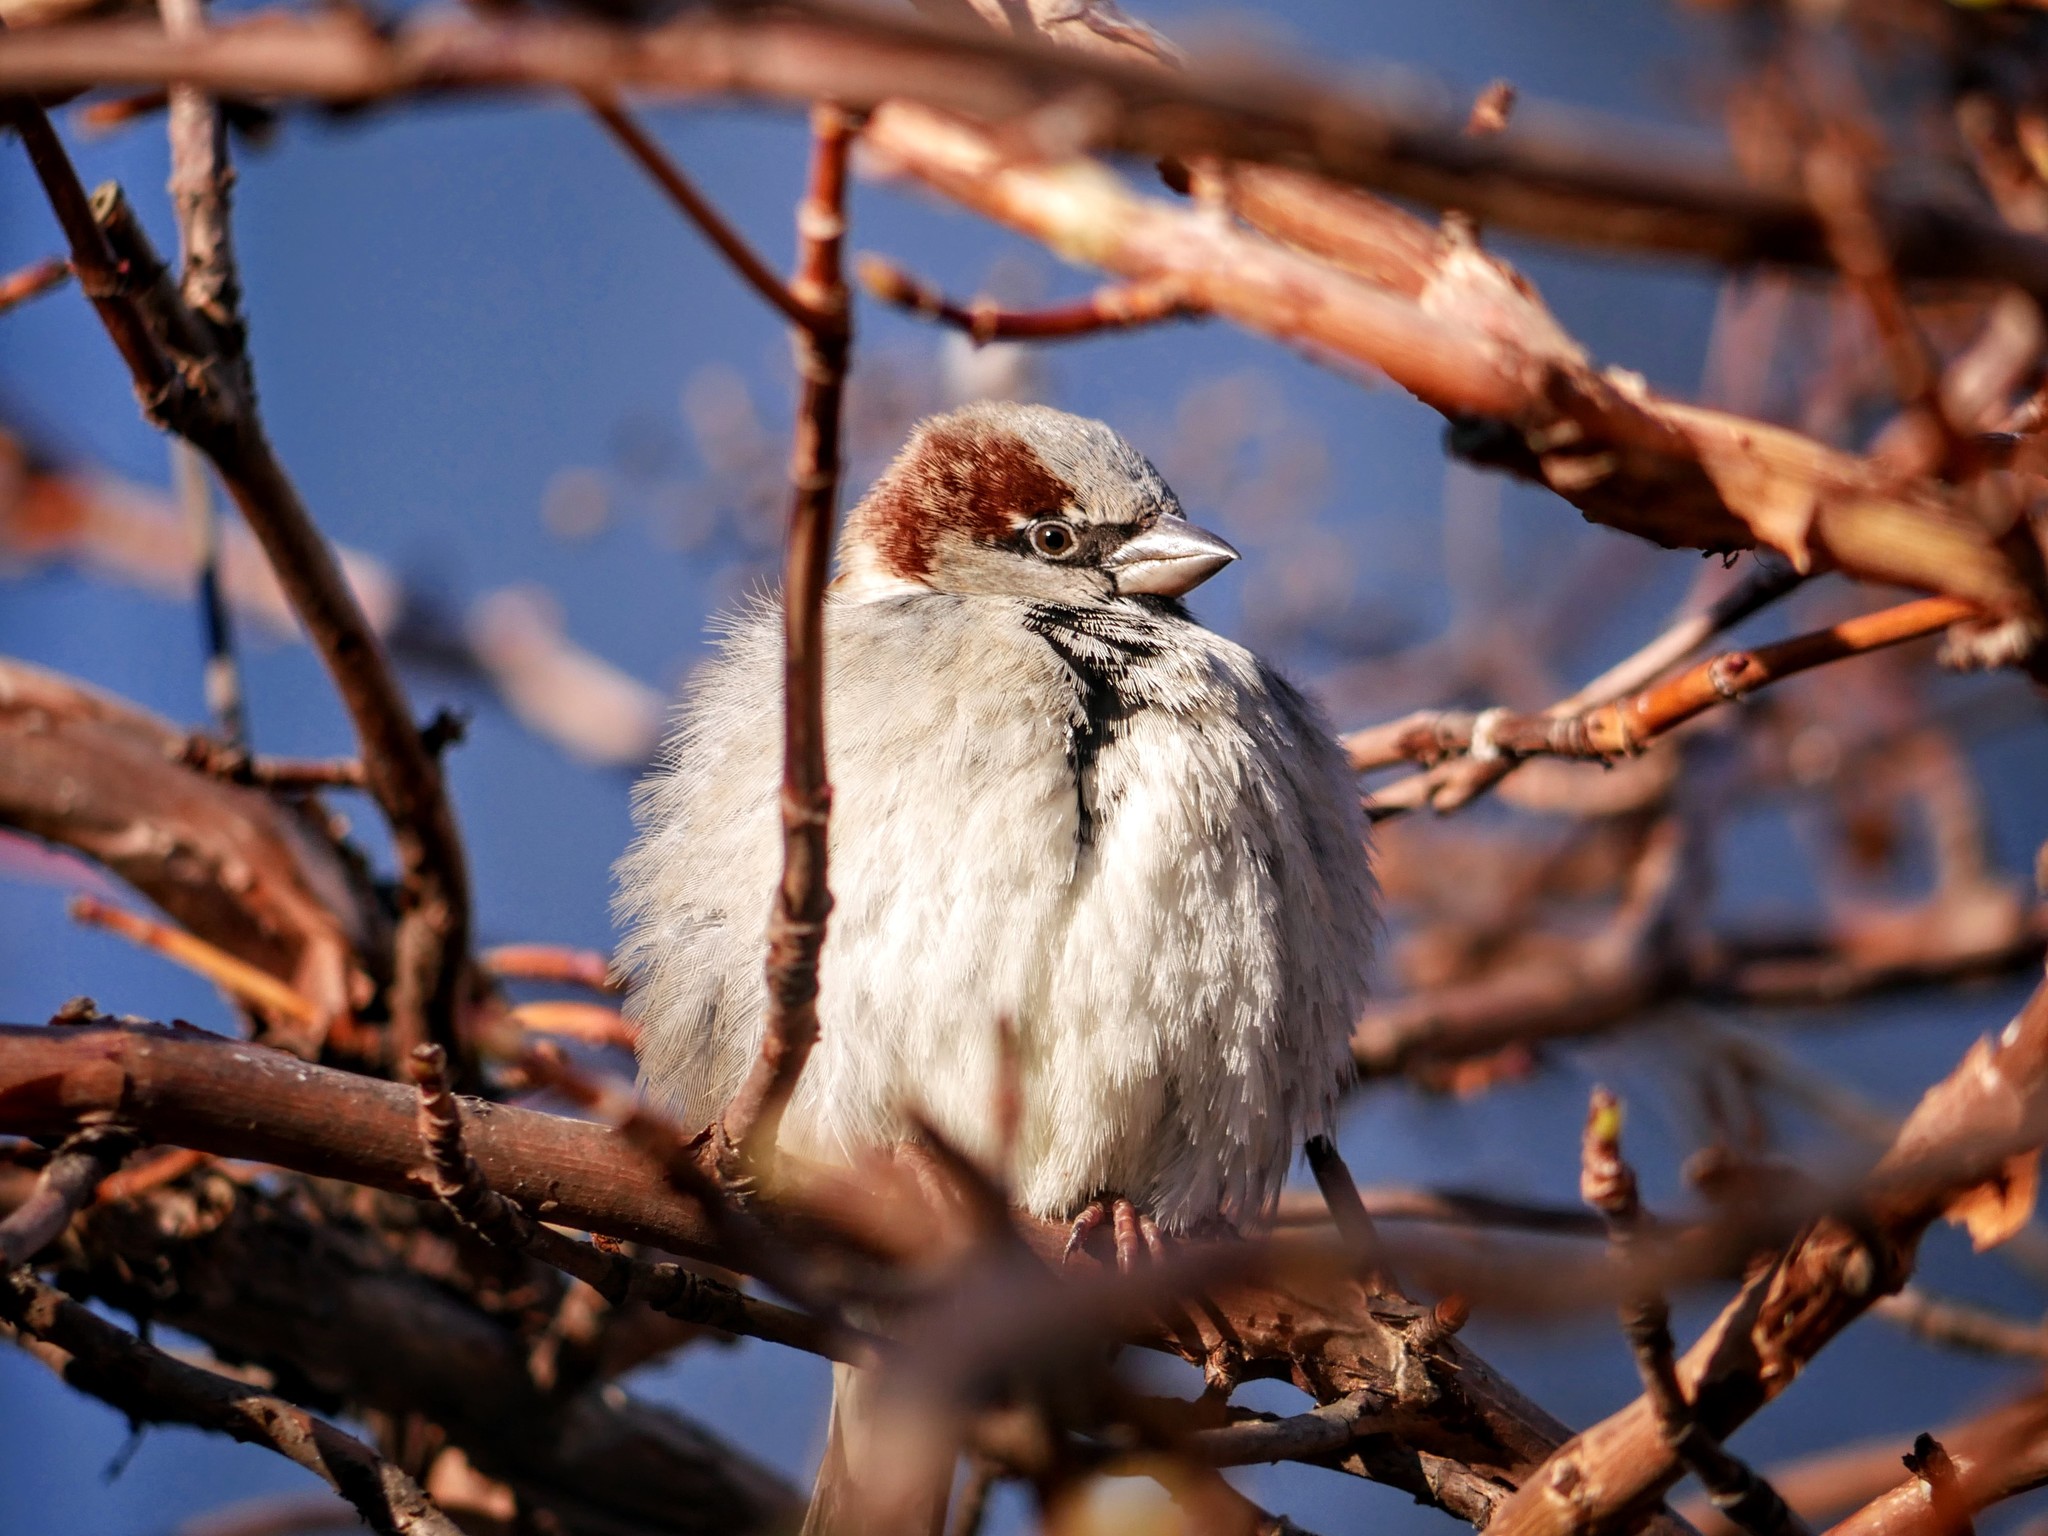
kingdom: Animalia
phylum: Chordata
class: Aves
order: Passeriformes
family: Passeridae
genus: Passer
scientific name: Passer domesticus
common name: House sparrow
